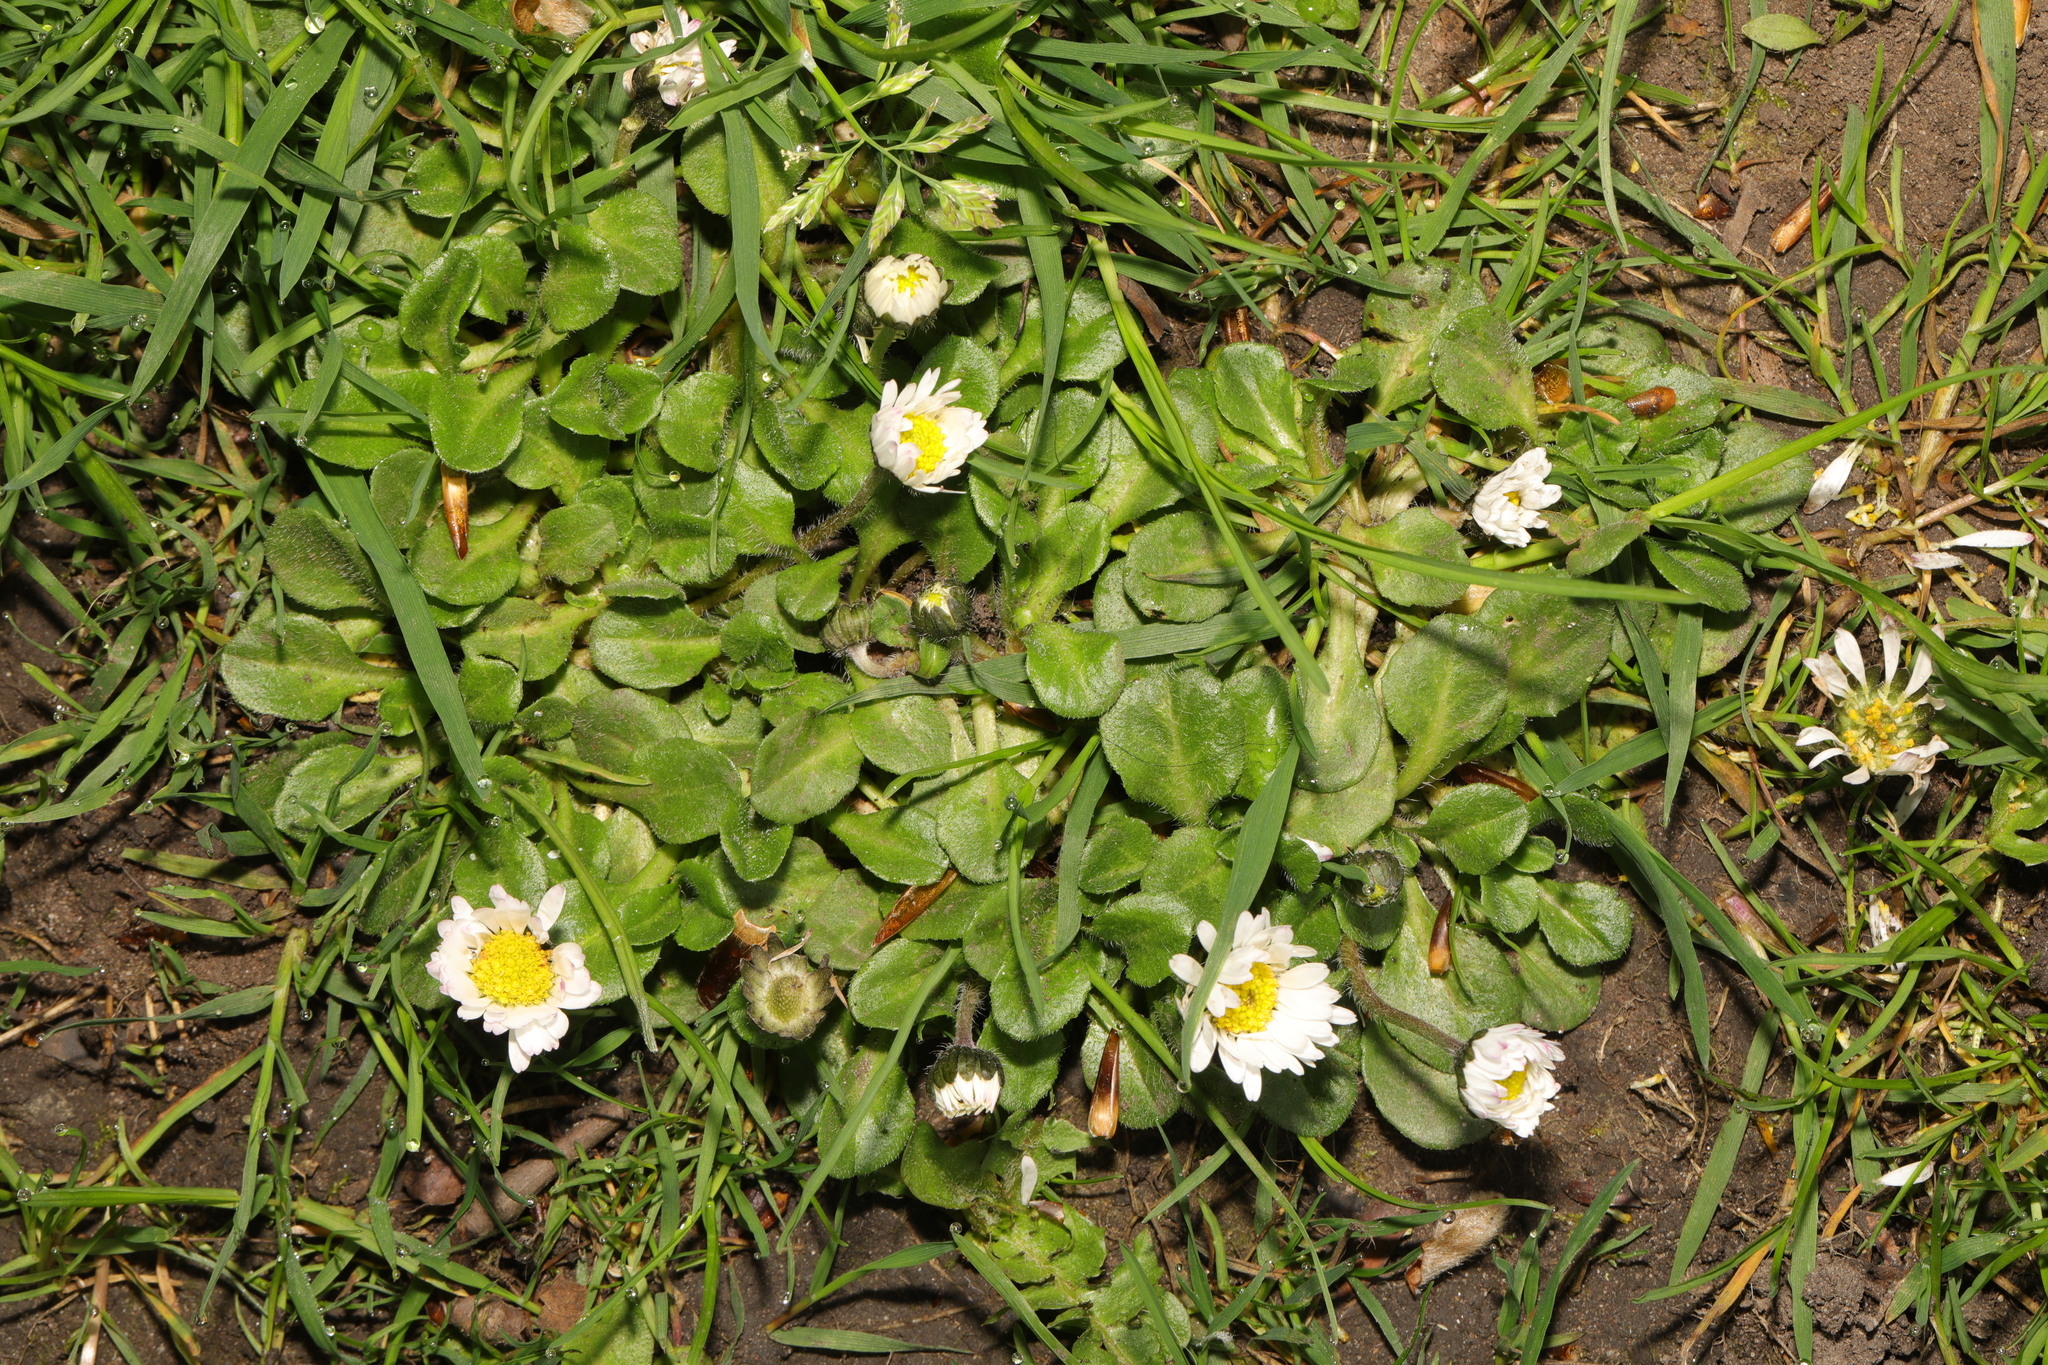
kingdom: Plantae
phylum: Tracheophyta
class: Magnoliopsida
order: Asterales
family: Asteraceae
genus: Bellis
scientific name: Bellis perennis
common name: Lawndaisy
